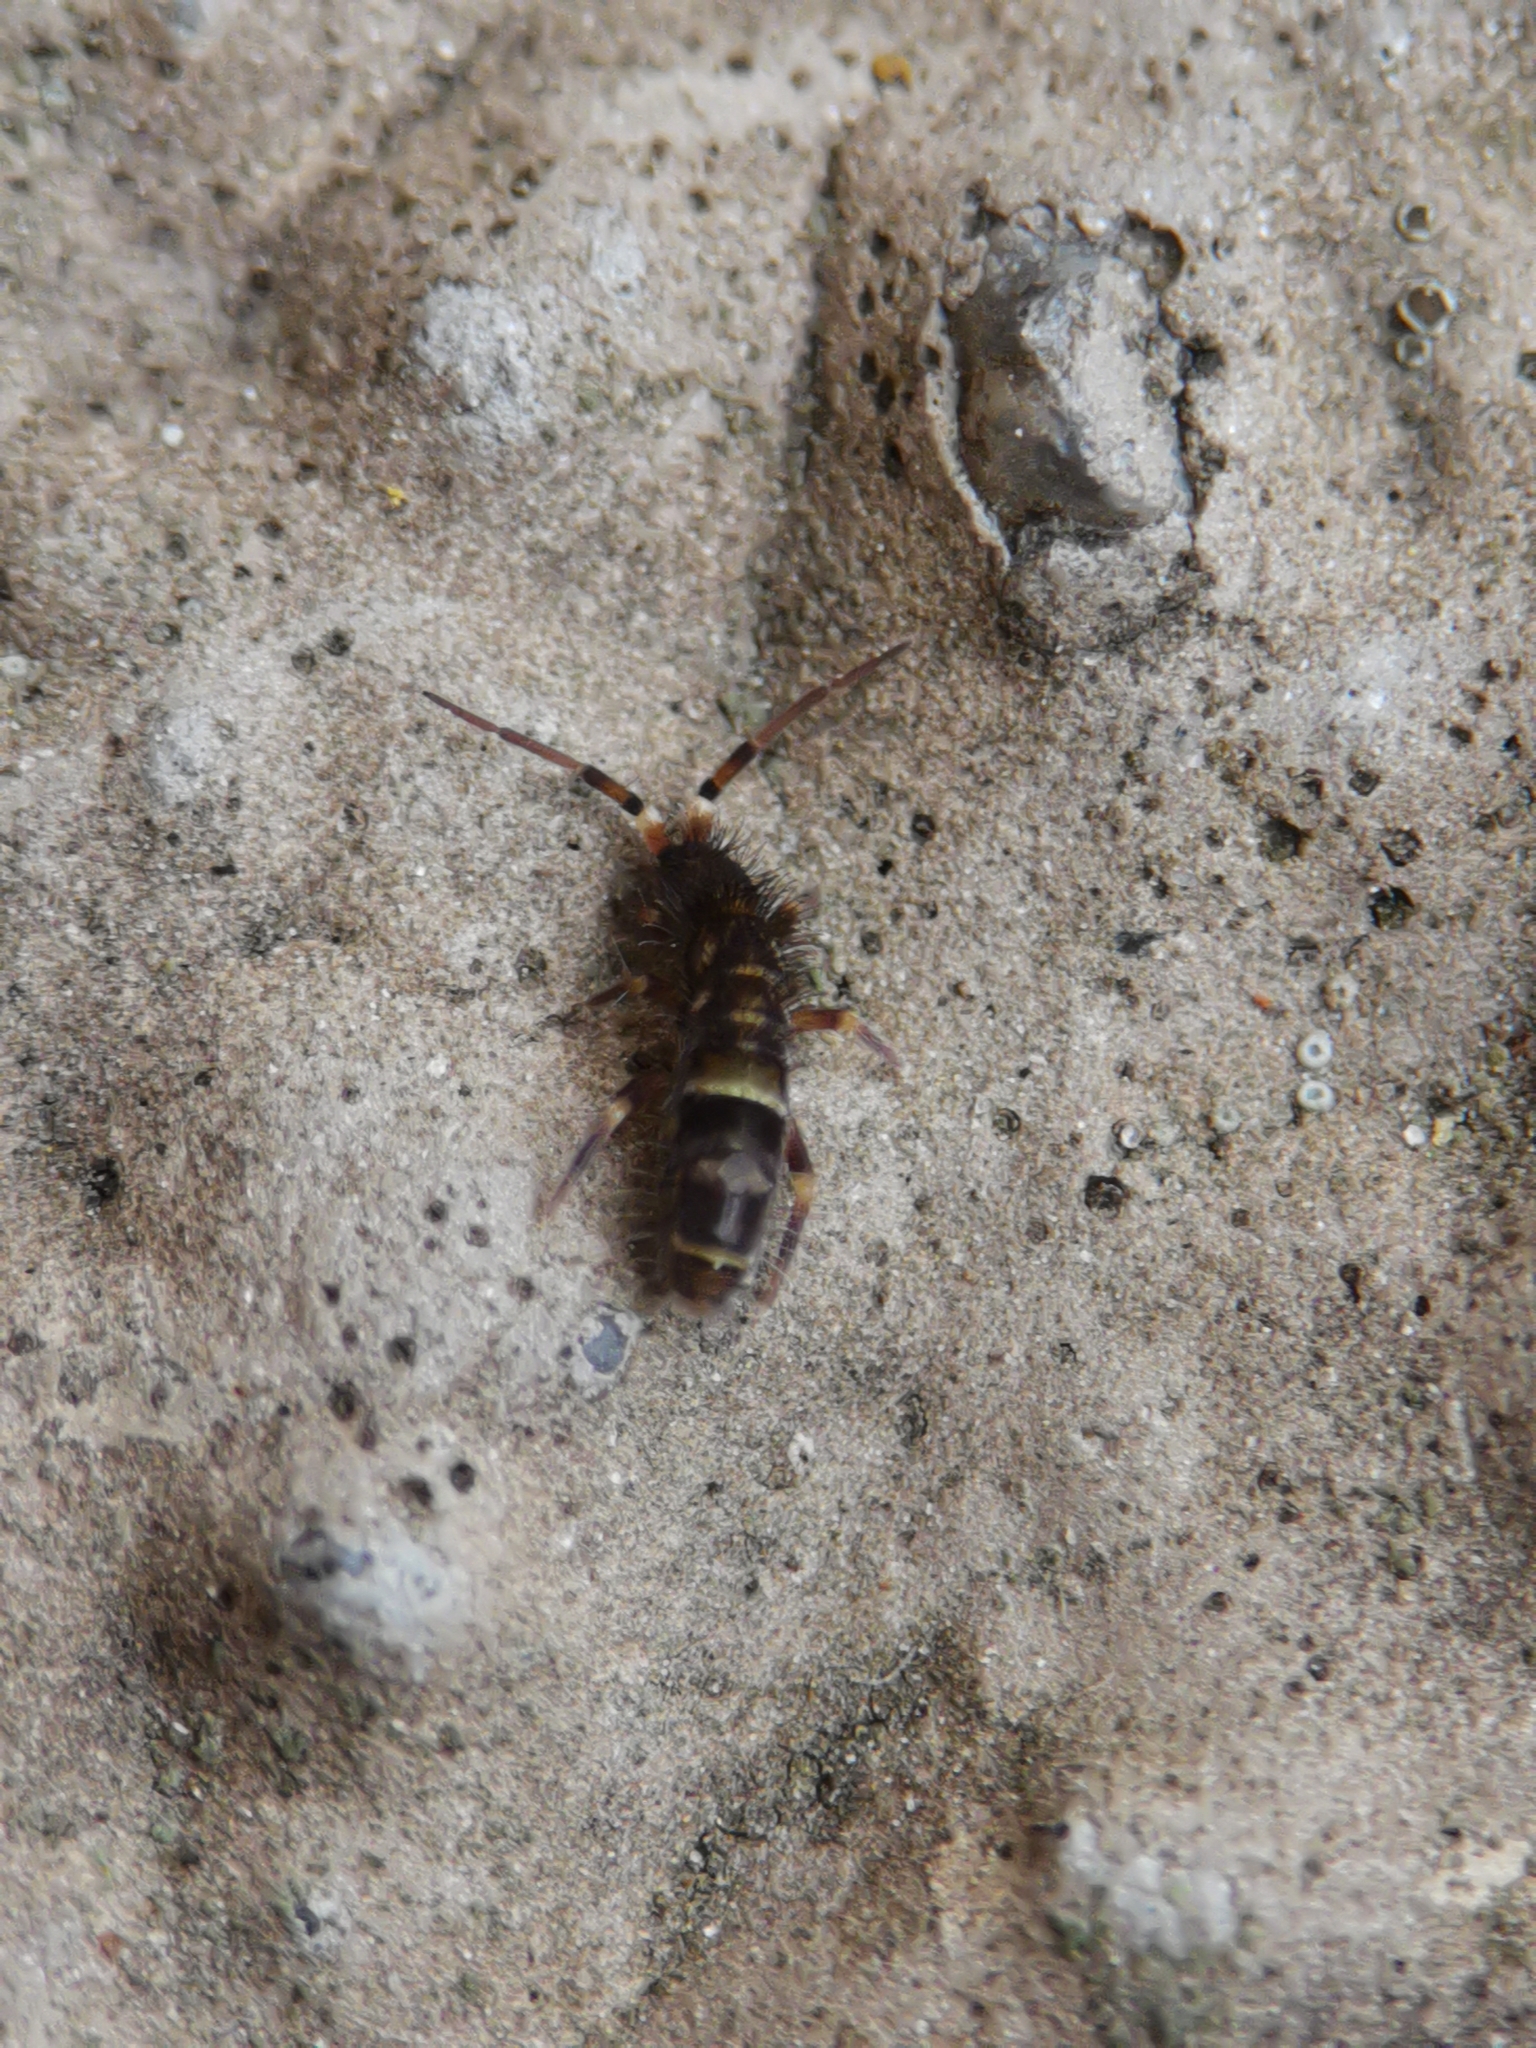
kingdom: Animalia
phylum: Arthropoda
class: Collembola
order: Entomobryomorpha
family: Orchesellidae
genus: Orchesella
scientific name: Orchesella cincta
